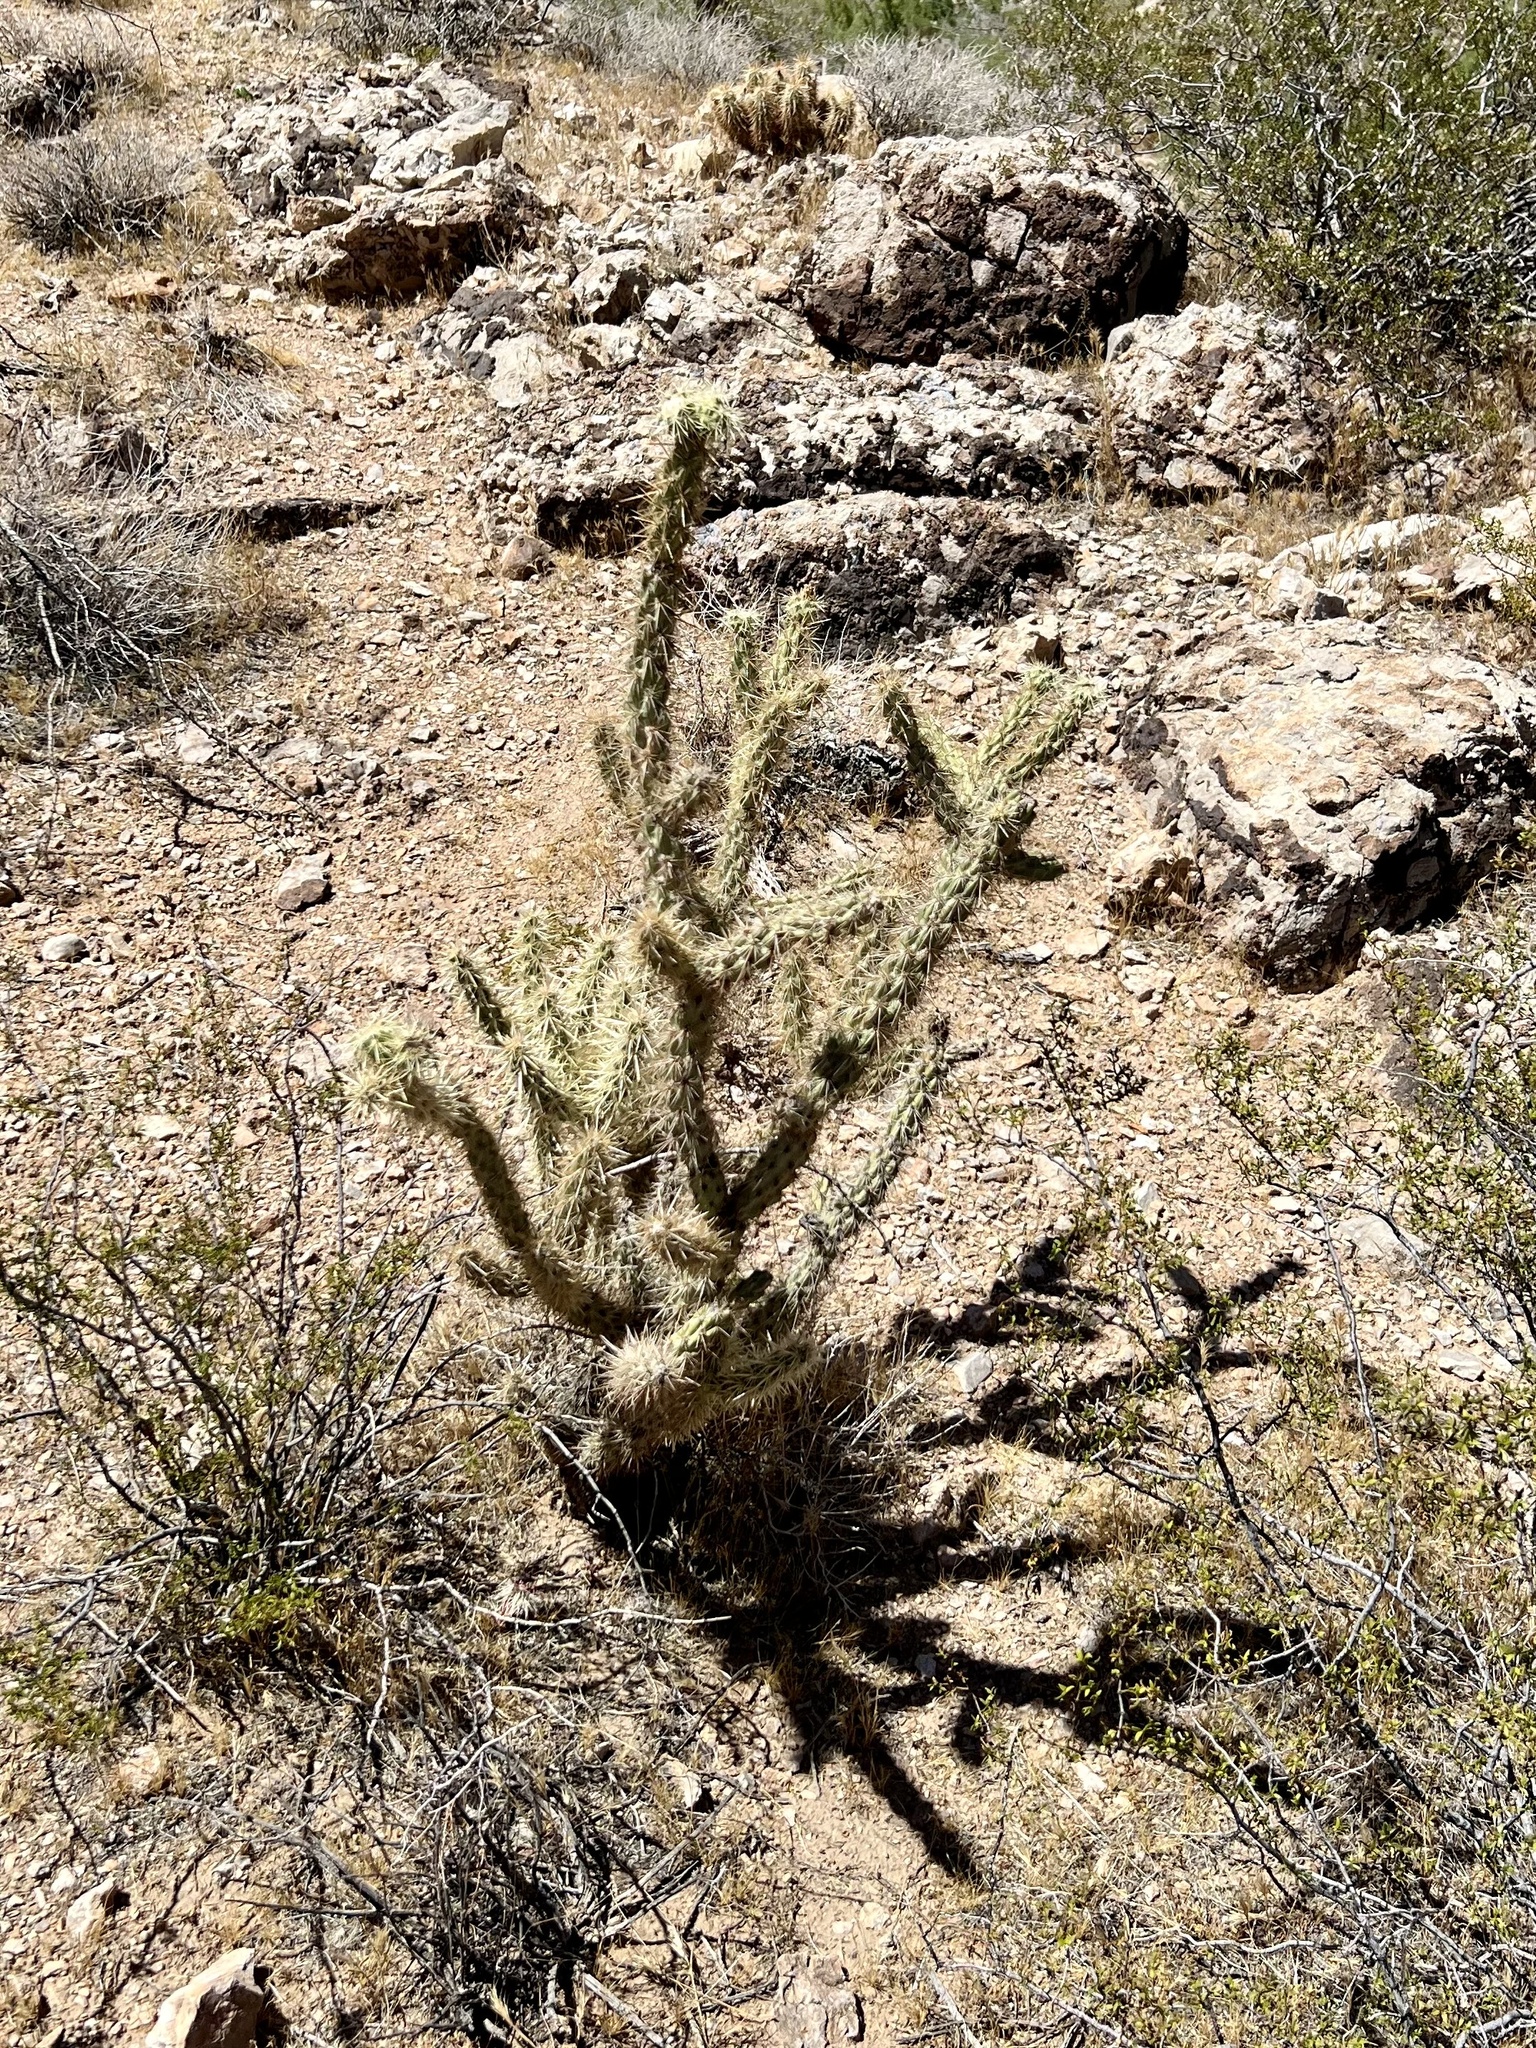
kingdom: Plantae
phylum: Tracheophyta
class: Magnoliopsida
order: Caryophyllales
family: Cactaceae
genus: Cylindropuntia
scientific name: Cylindropuntia acanthocarpa
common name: Buckhorn cholla
